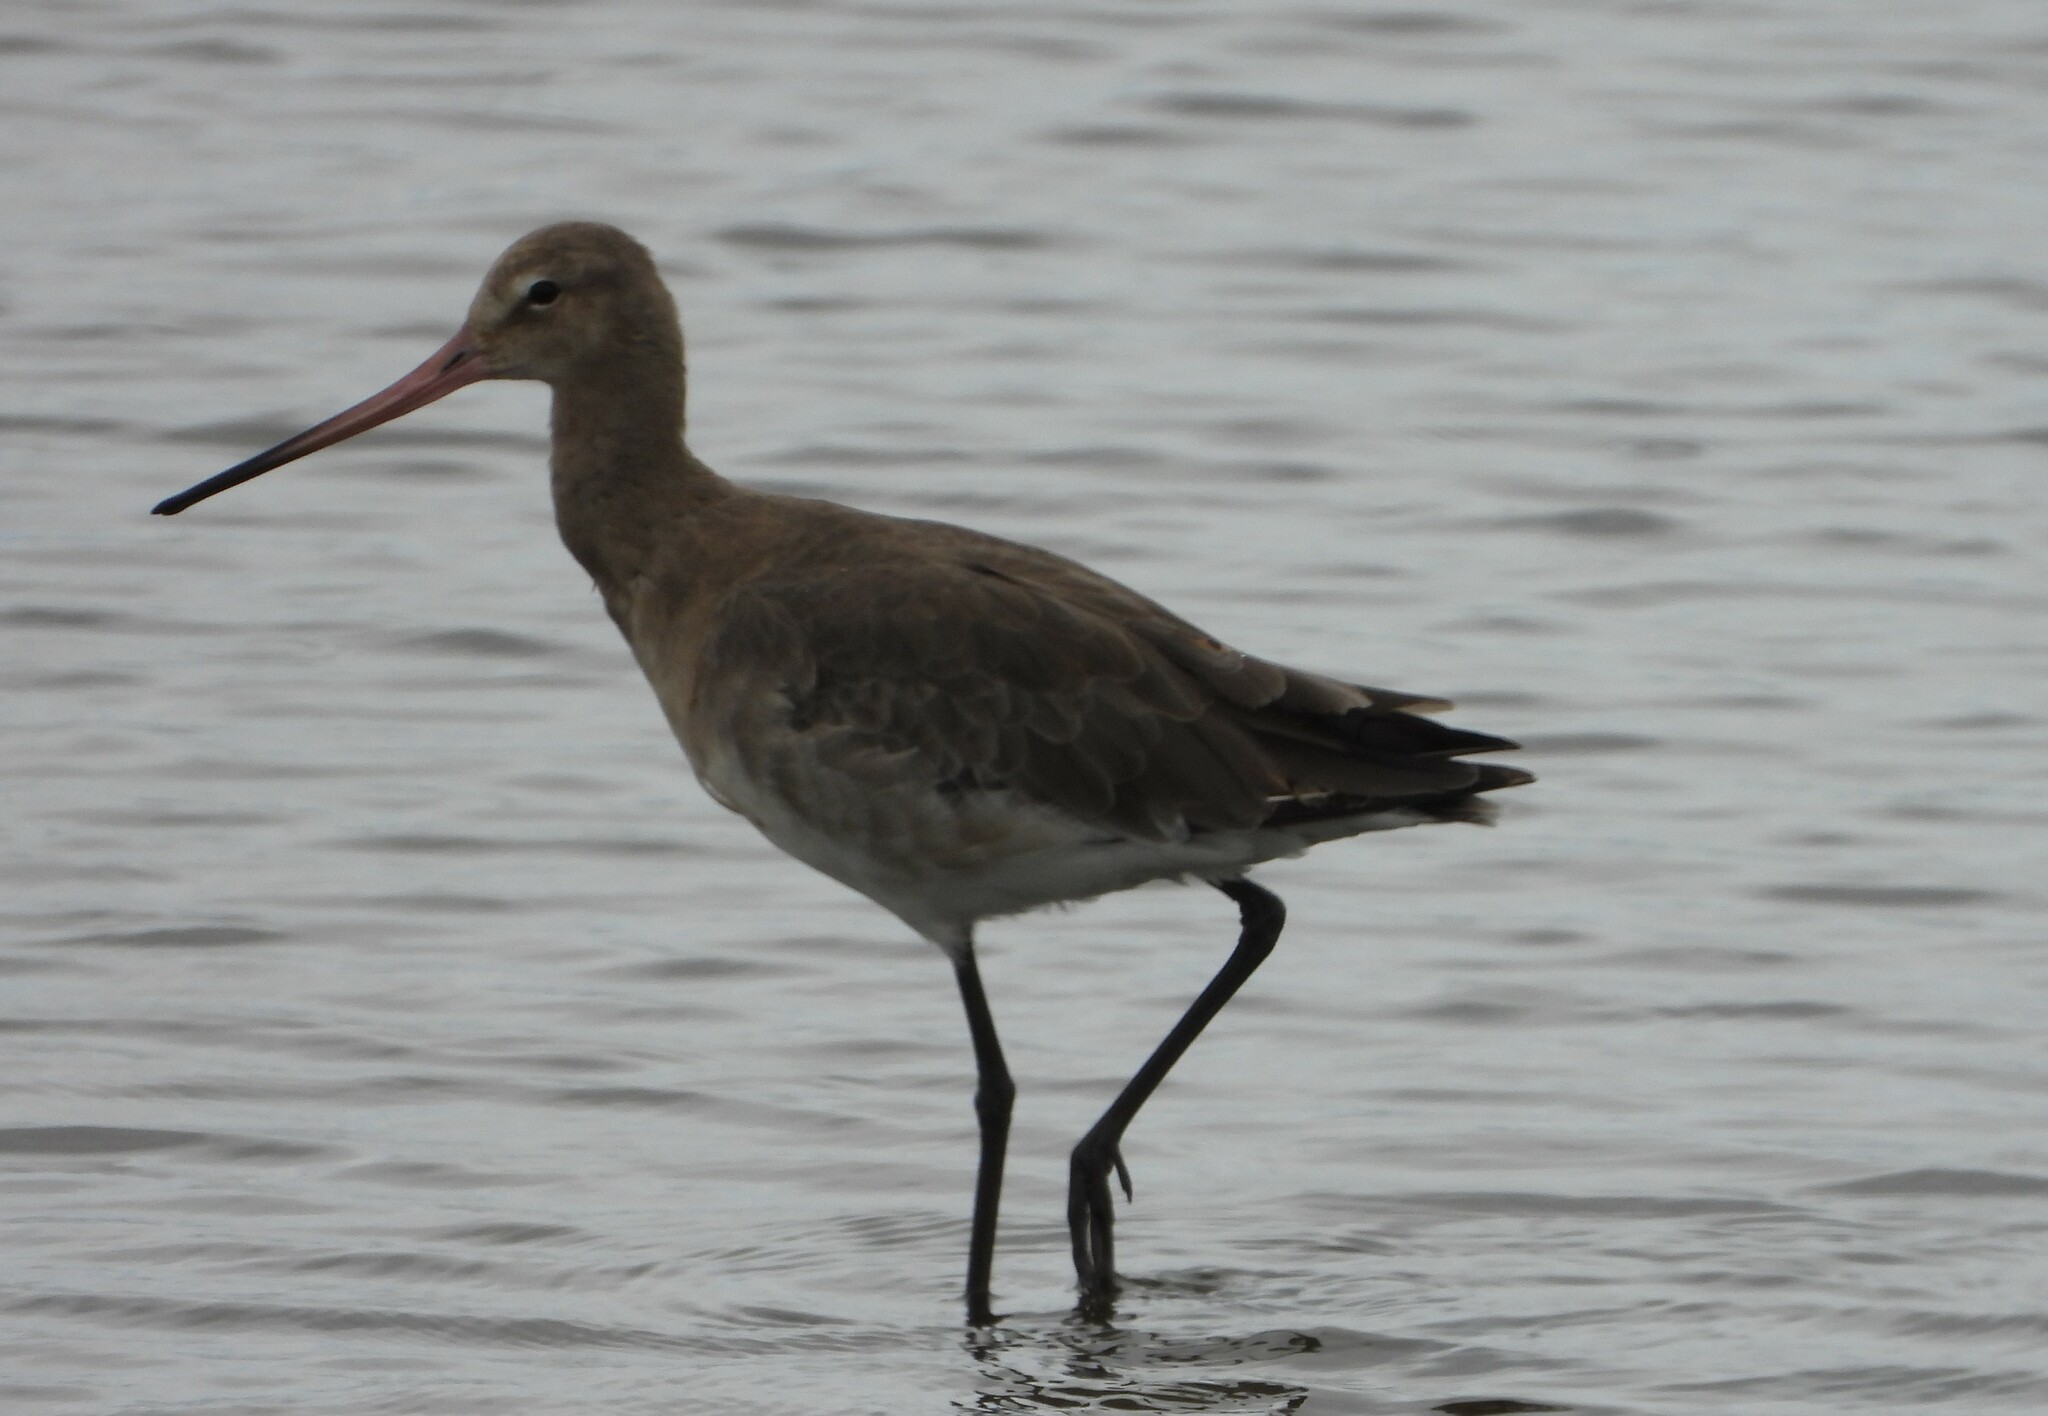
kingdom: Animalia
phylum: Chordata
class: Aves
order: Charadriiformes
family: Scolopacidae
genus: Limosa
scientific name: Limosa limosa
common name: Black-tailed godwit
